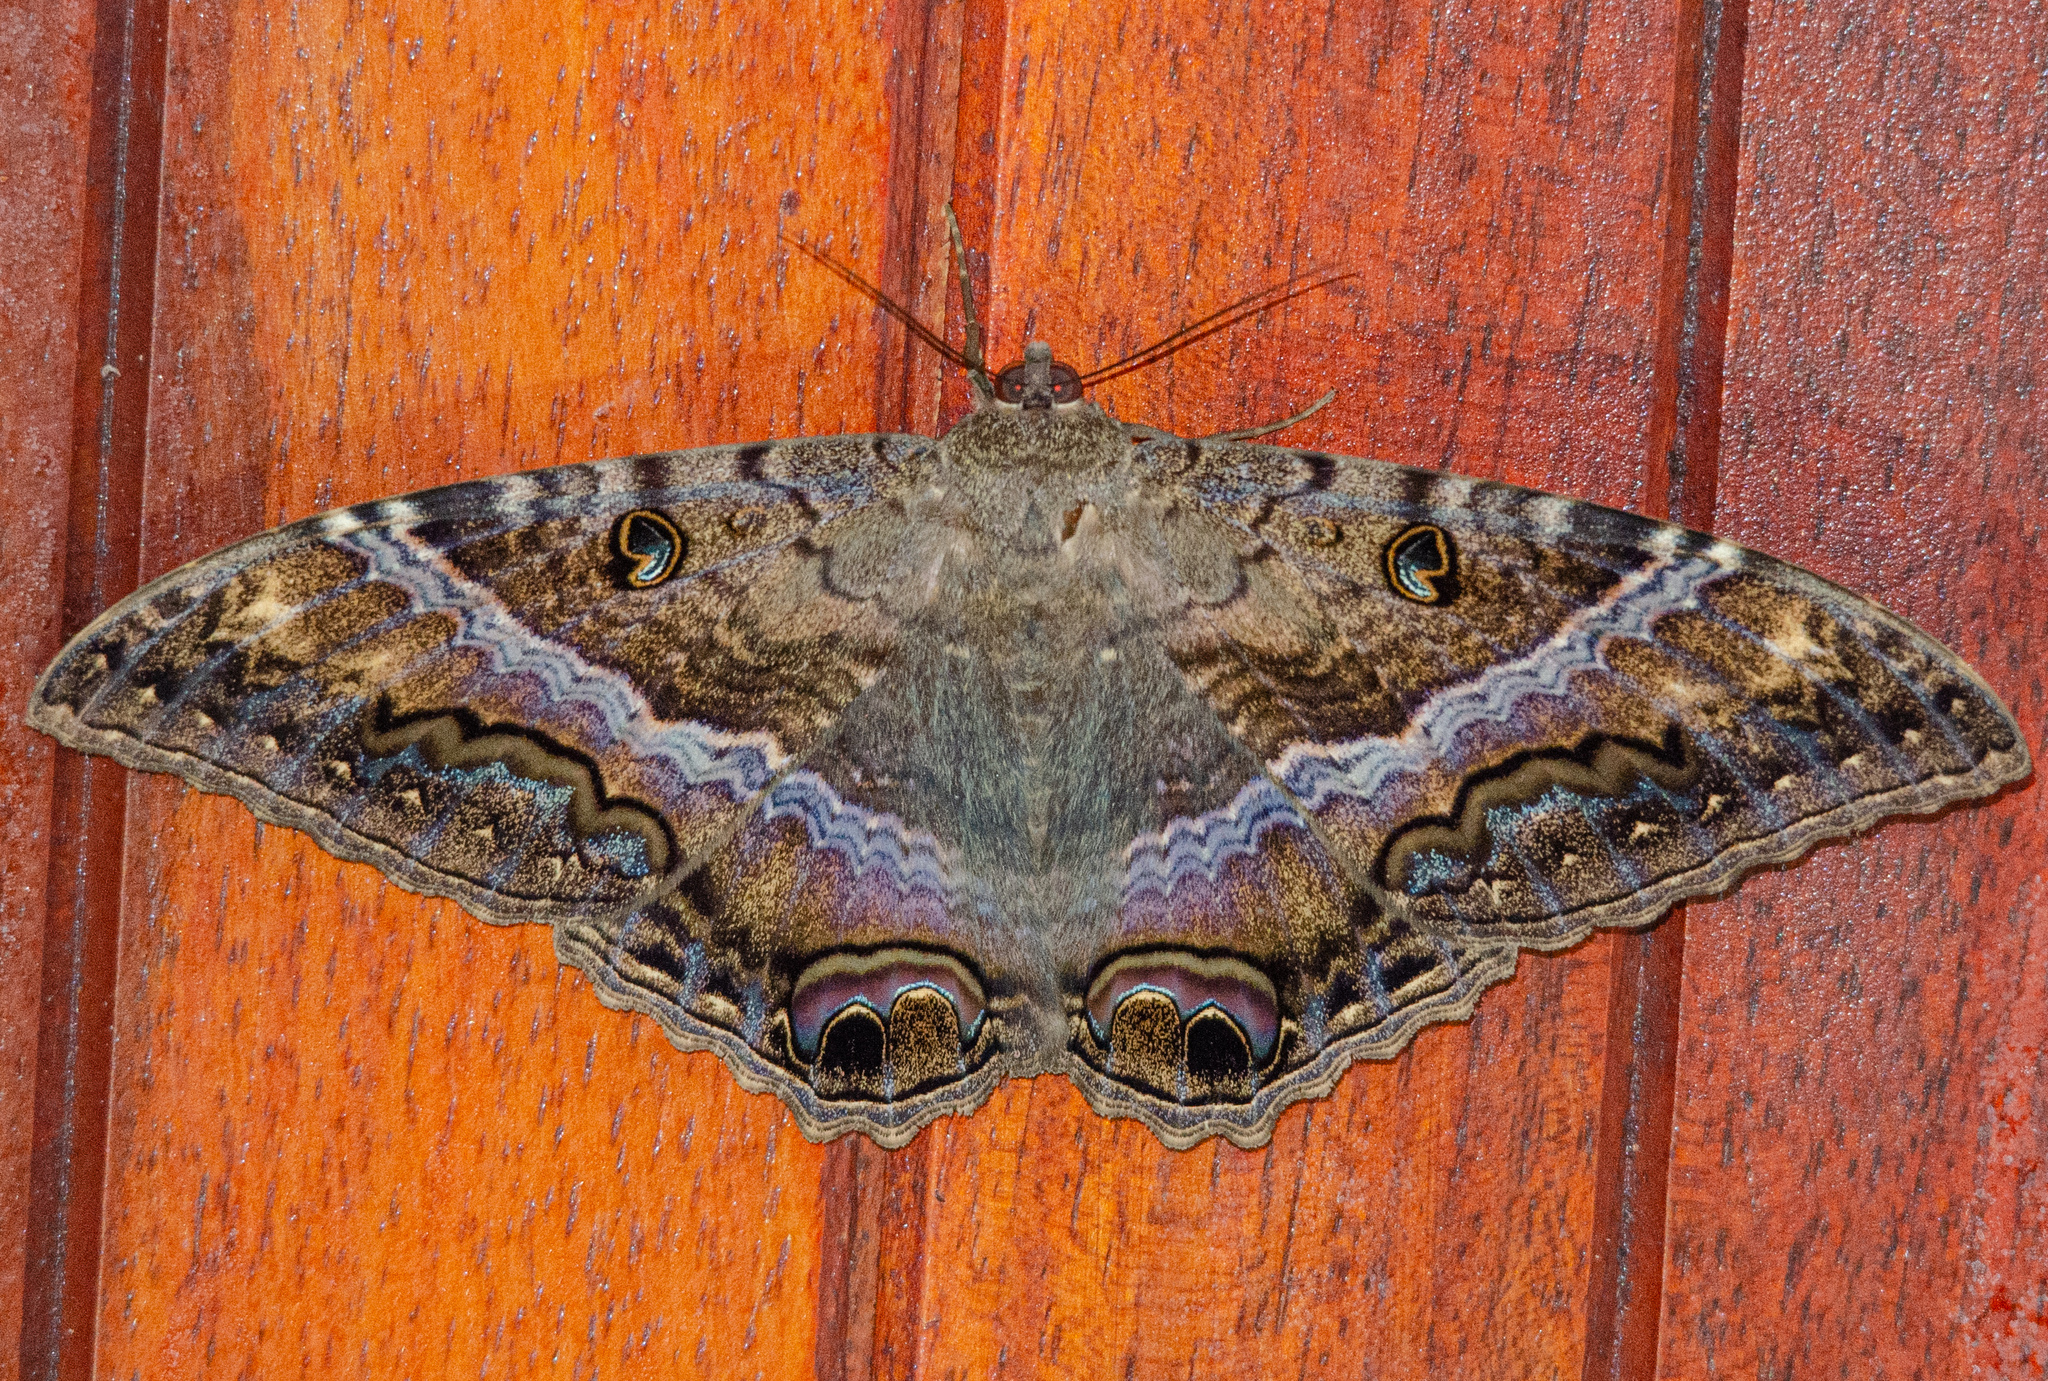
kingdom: Animalia
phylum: Arthropoda
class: Insecta
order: Lepidoptera
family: Erebidae
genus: Ascalapha
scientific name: Ascalapha odorata
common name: Black witch
